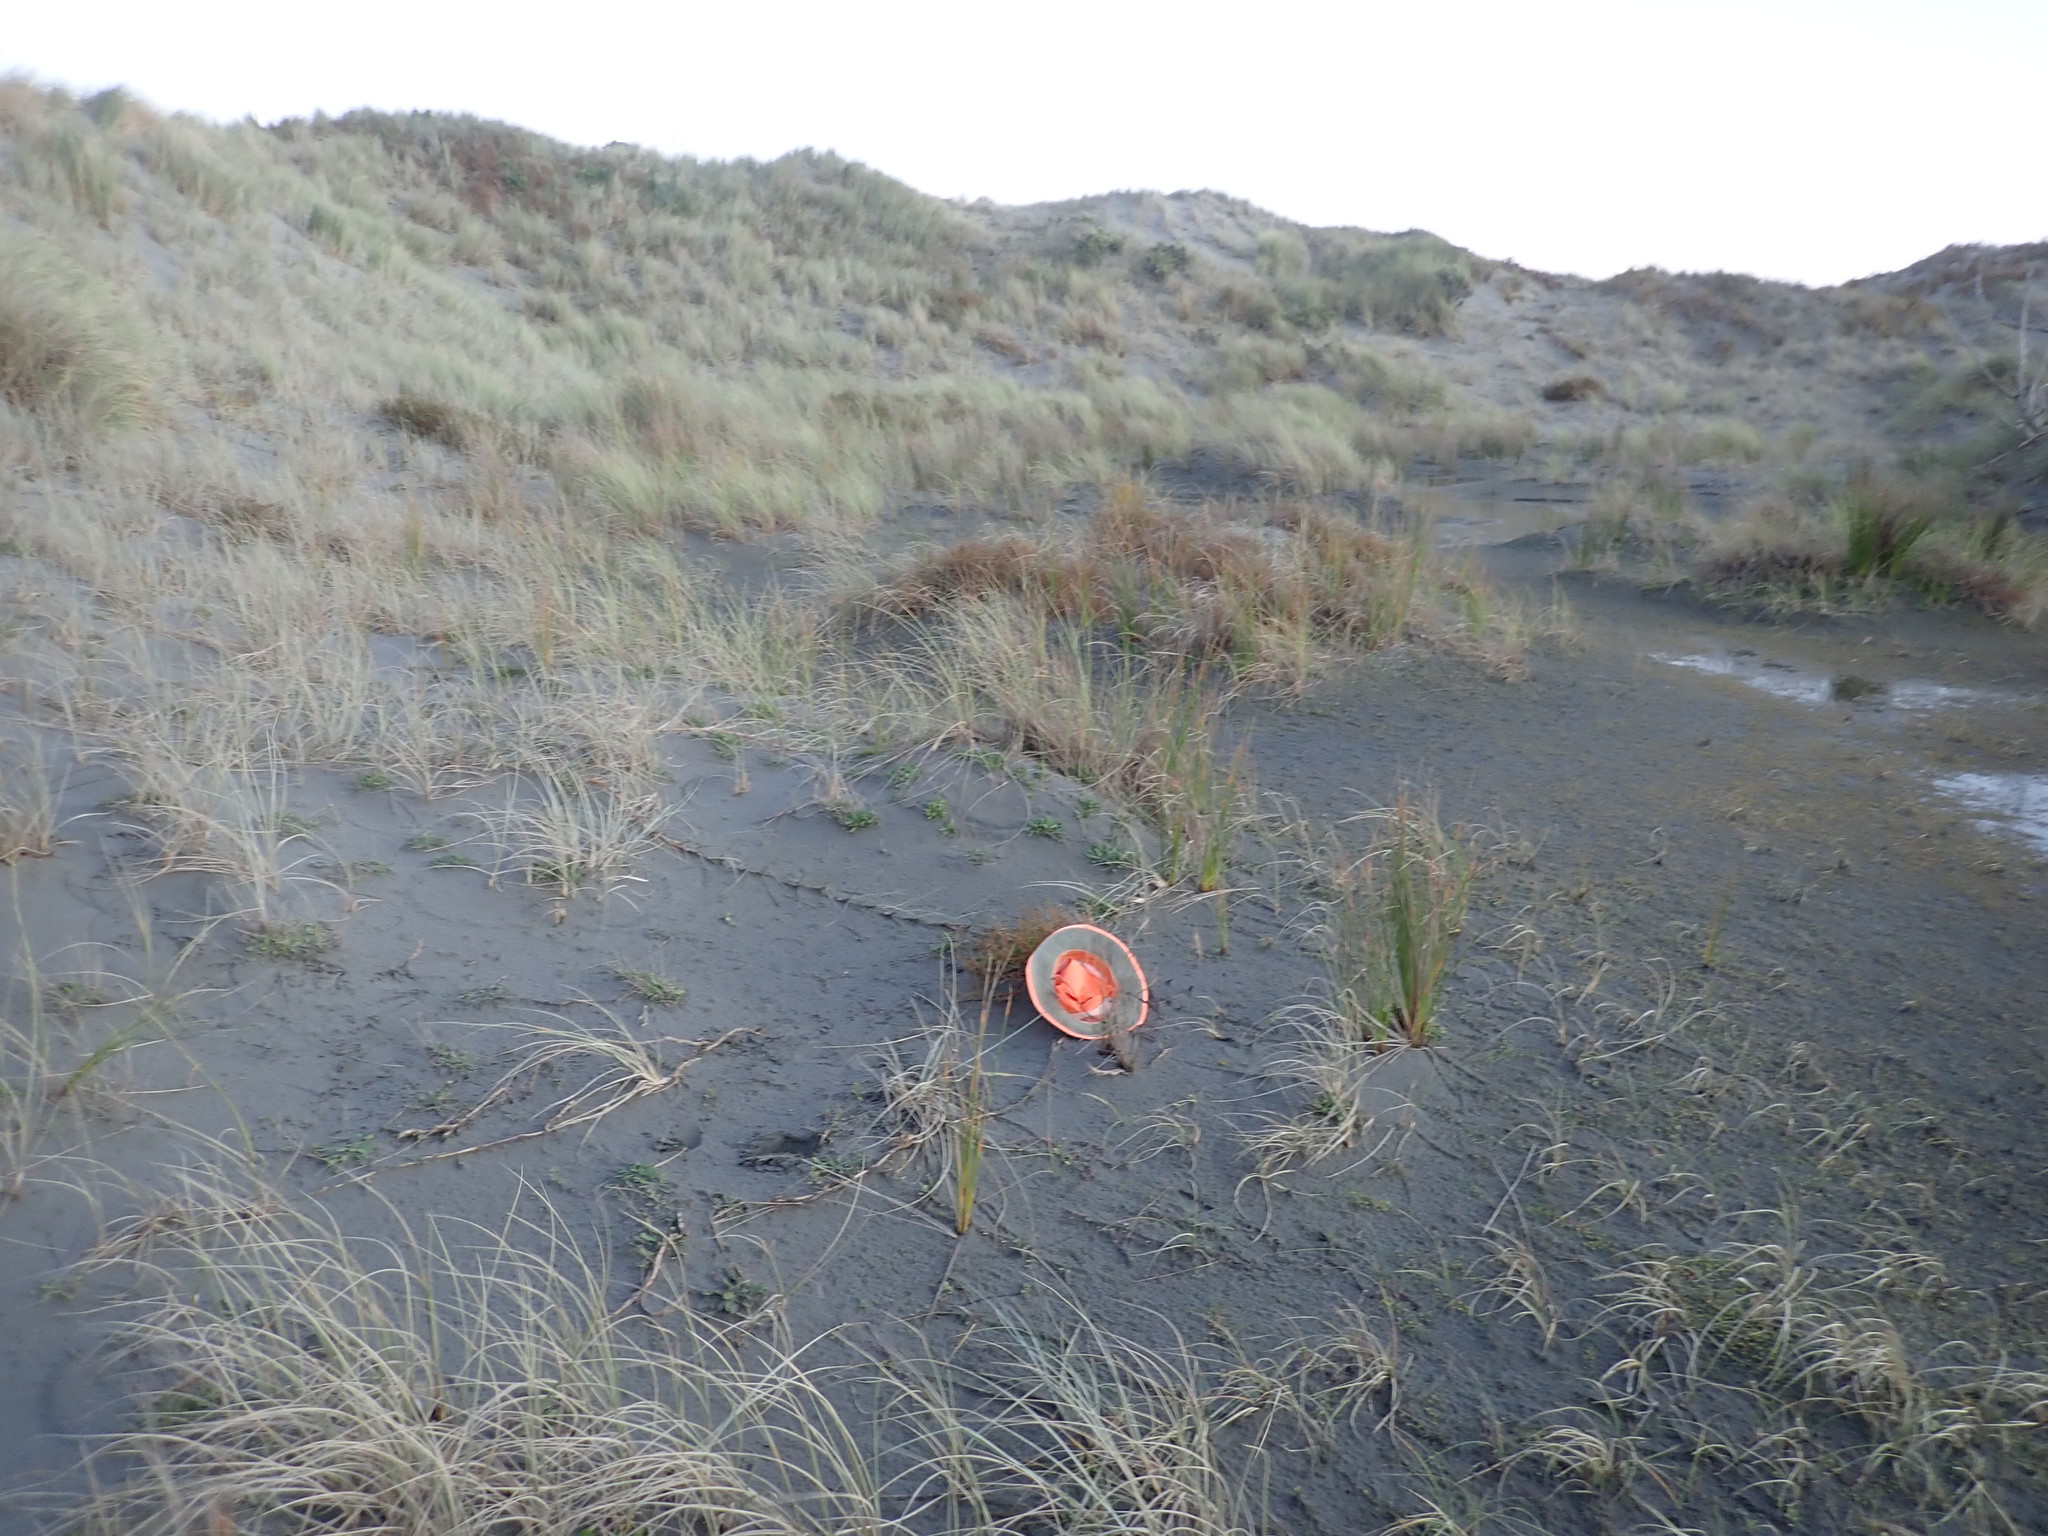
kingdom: Plantae
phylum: Tracheophyta
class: Magnoliopsida
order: Gentianales
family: Rubiaceae
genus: Coprosma
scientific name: Coprosma acerosa
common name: Sand coprosma
